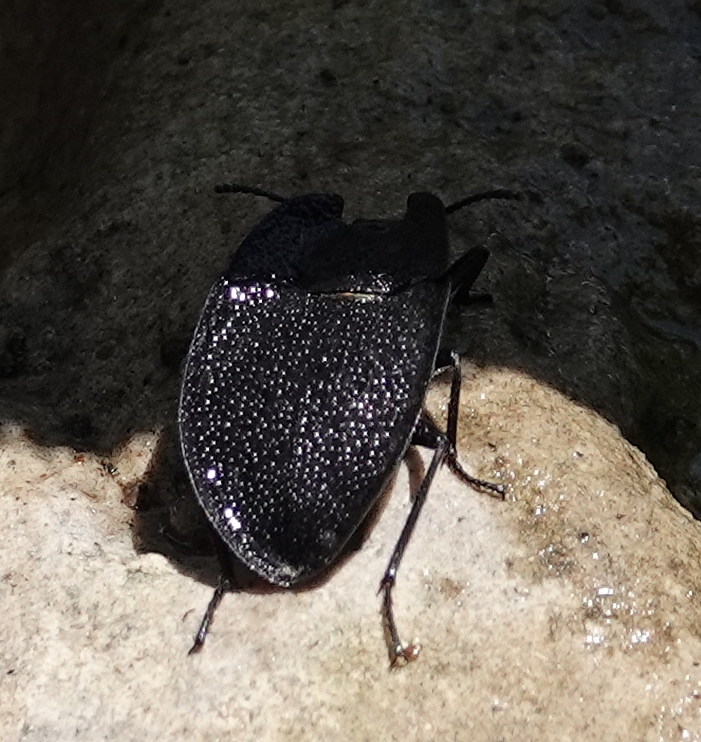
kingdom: Animalia
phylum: Arthropoda
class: Insecta
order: Coleoptera
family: Tenebrionidae
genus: Embaphion
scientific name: Embaphion muricatum
